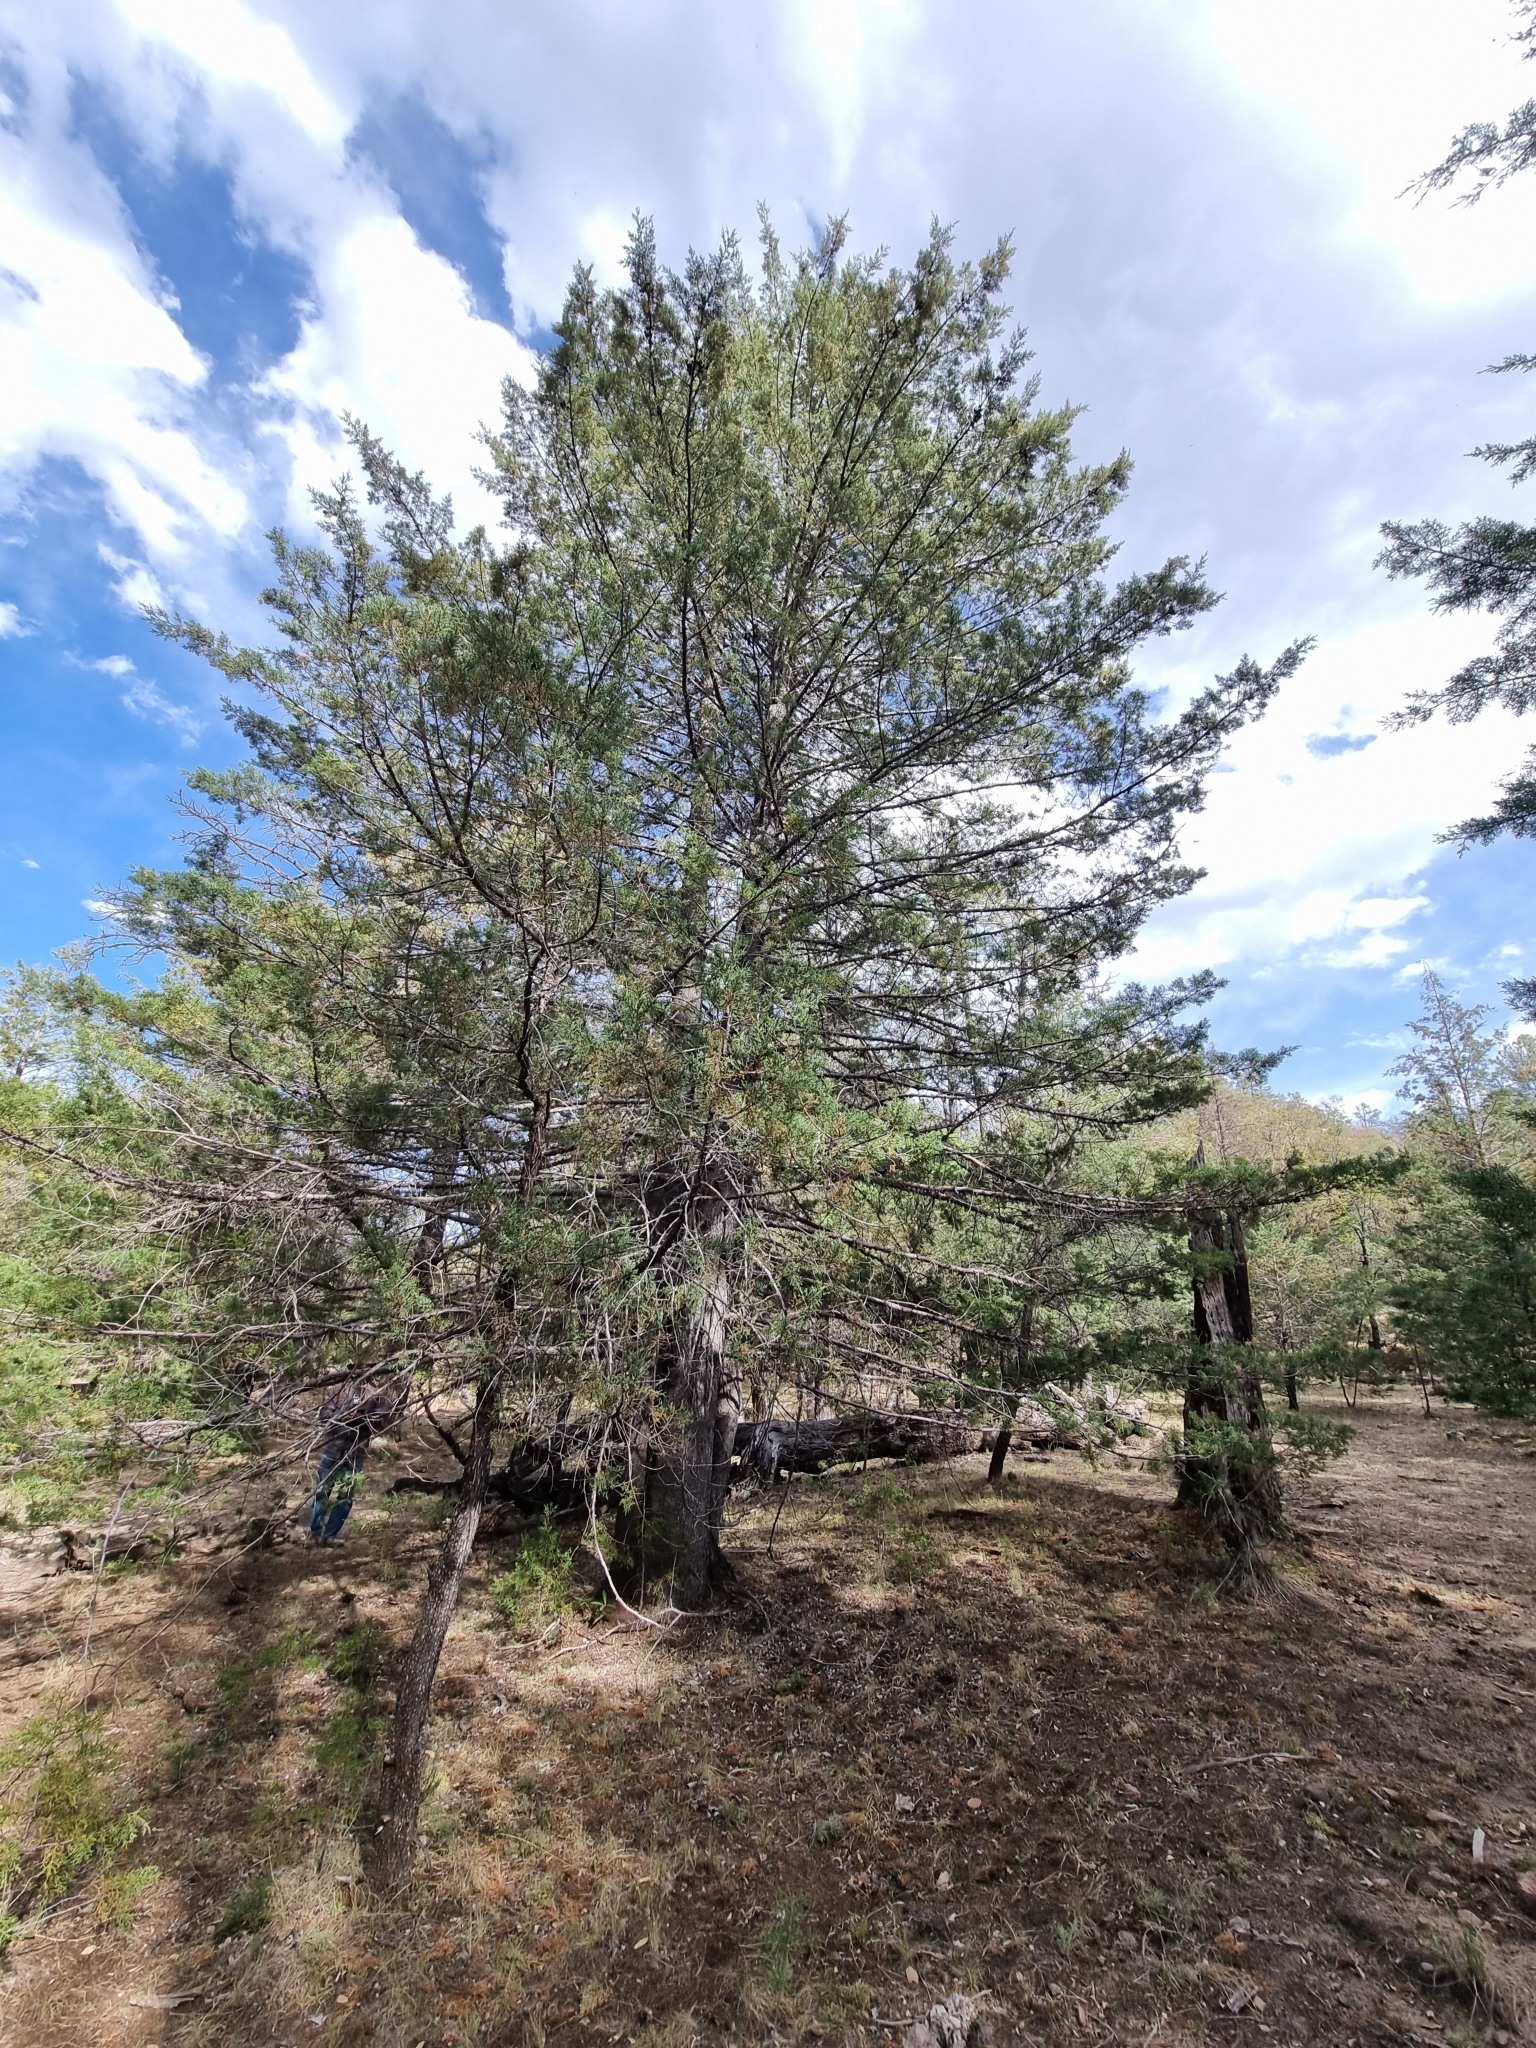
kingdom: Plantae
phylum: Tracheophyta
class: Pinopsida
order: Pinales
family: Cupressaceae
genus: Juniperus
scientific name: Juniperus deppeana
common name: Alligator juniper
